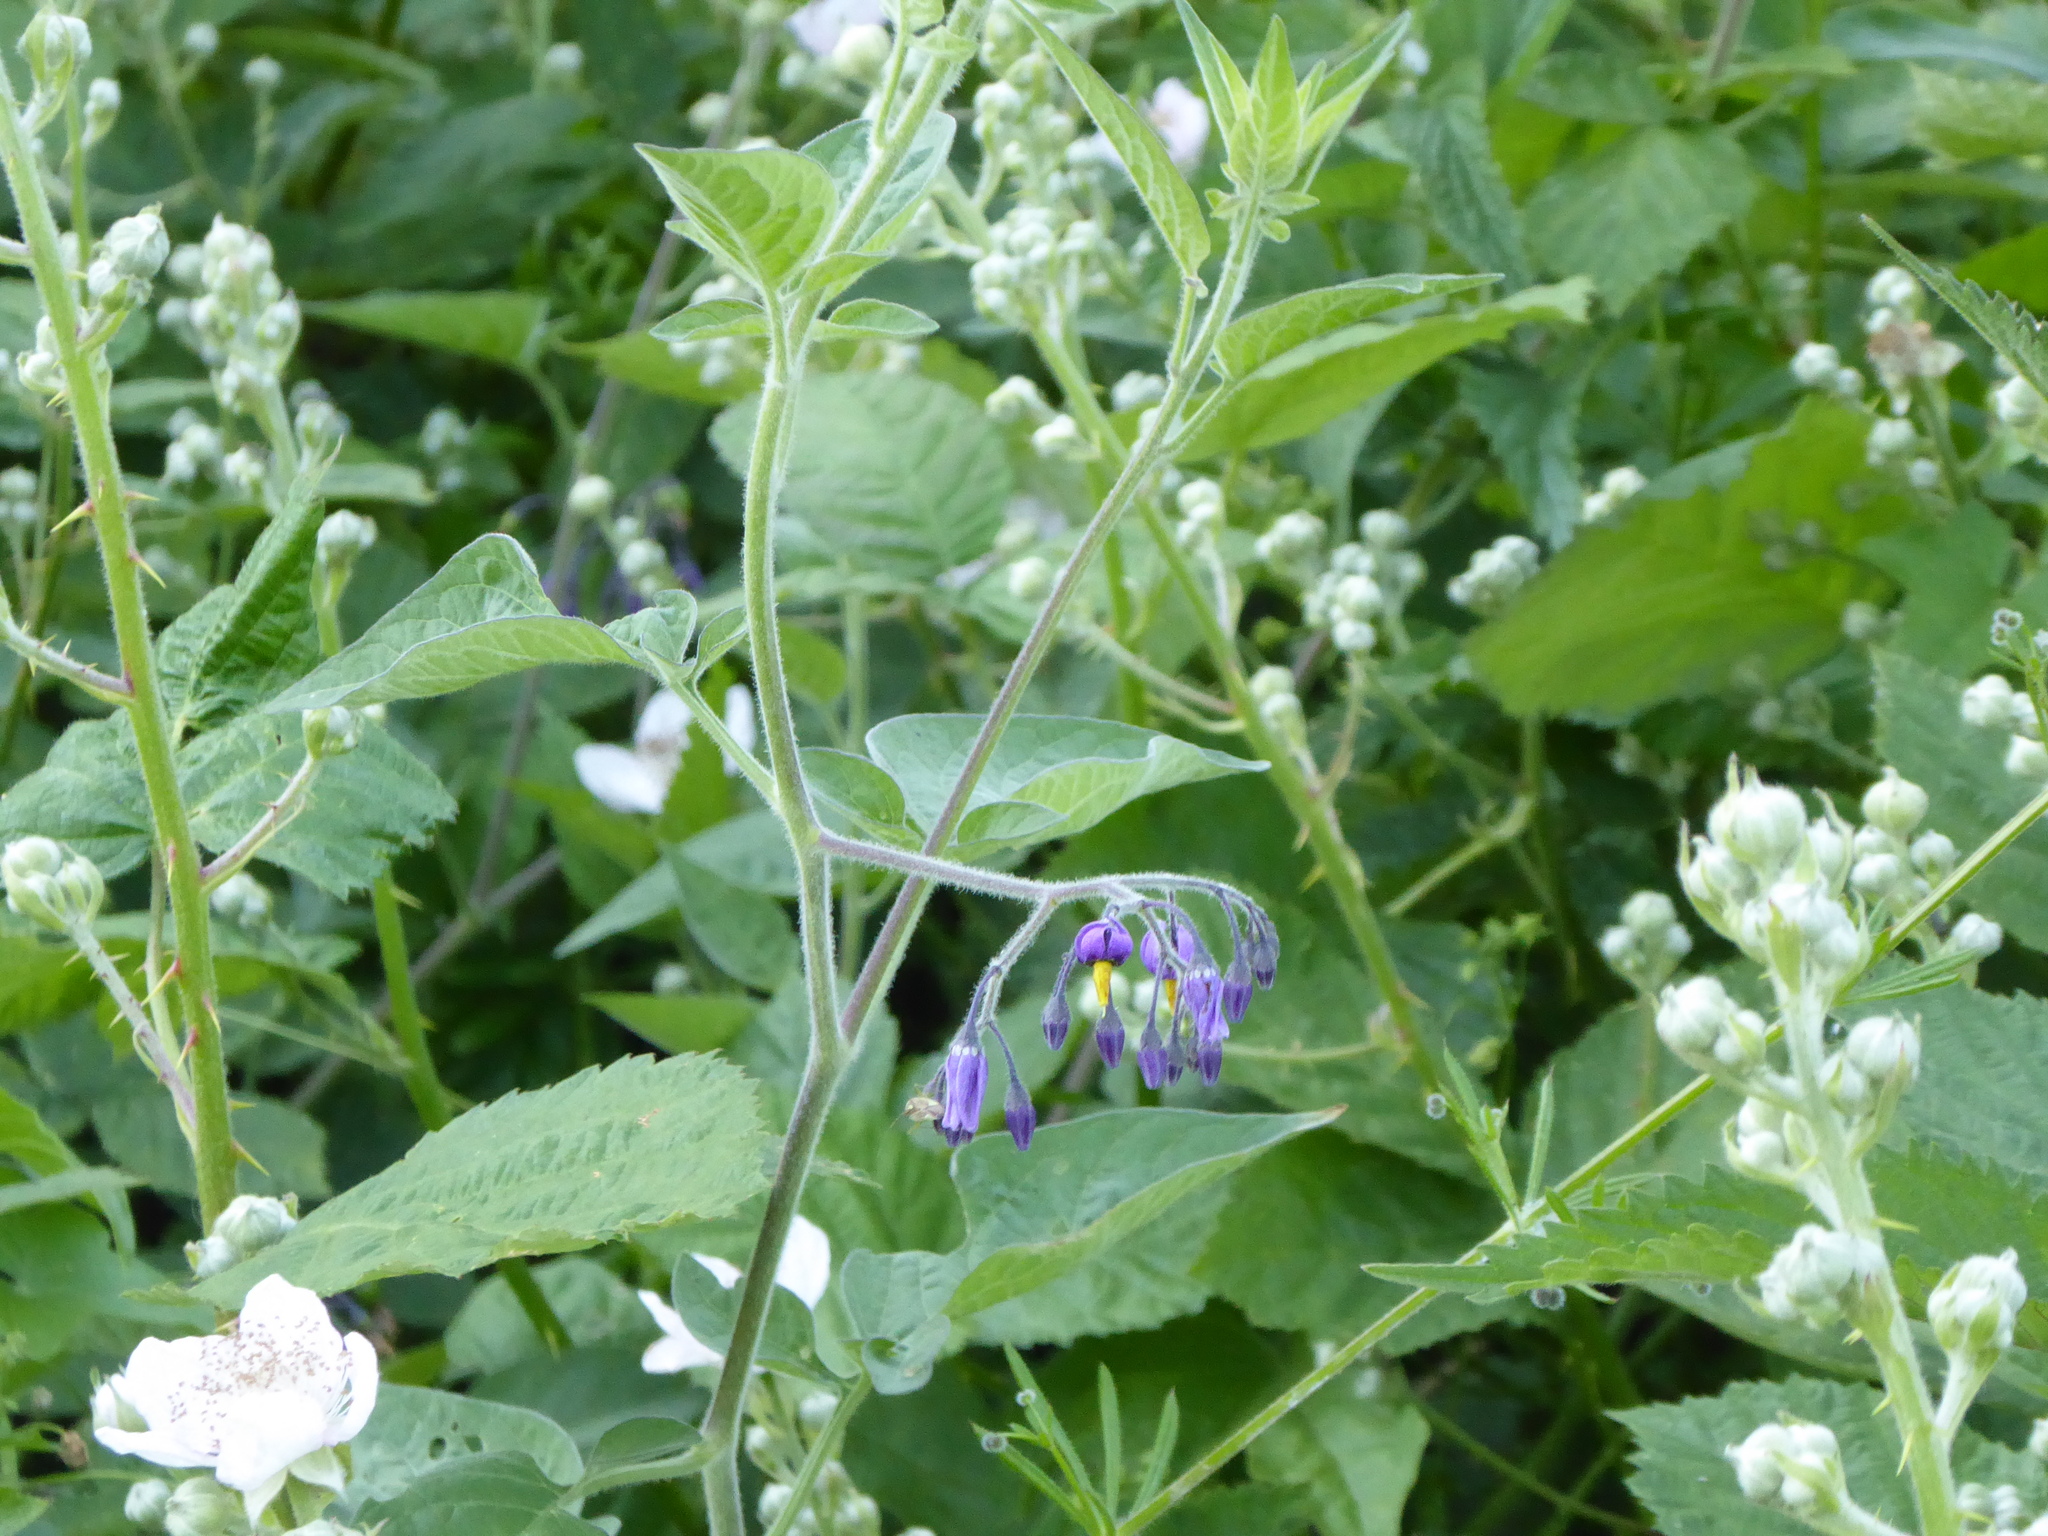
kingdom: Plantae
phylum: Tracheophyta
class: Magnoliopsida
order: Solanales
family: Solanaceae
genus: Solanum
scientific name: Solanum dulcamara
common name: Climbing nightshade
